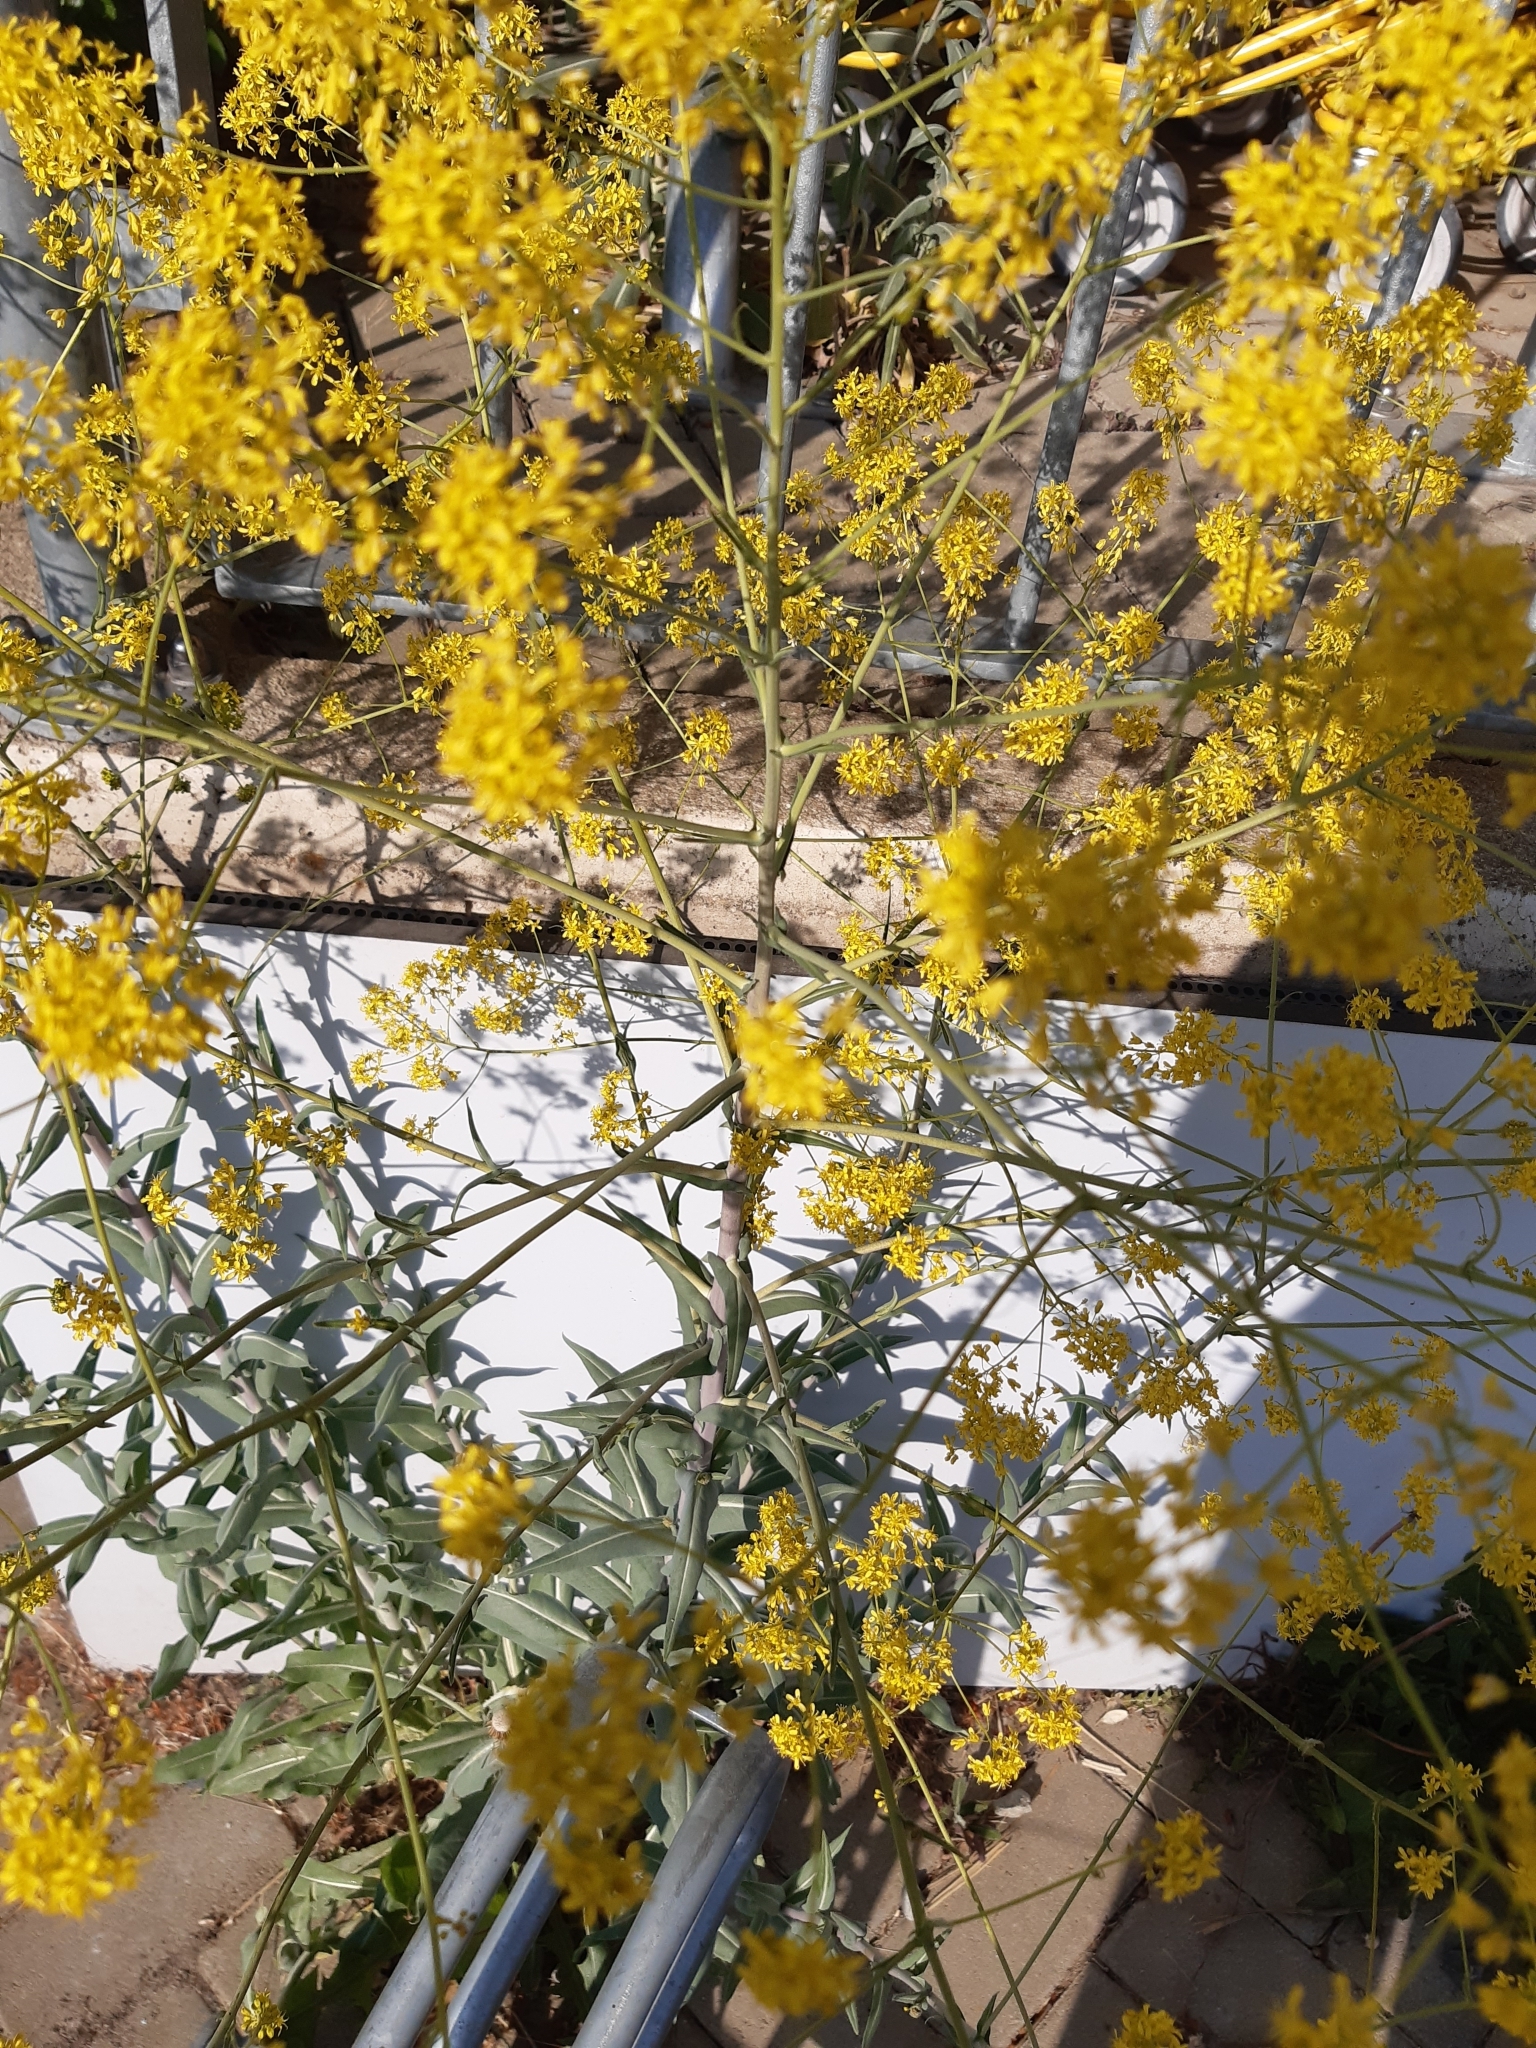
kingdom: Plantae
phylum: Tracheophyta
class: Magnoliopsida
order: Brassicales
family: Brassicaceae
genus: Isatis
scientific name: Isatis tinctoria
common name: Woad
